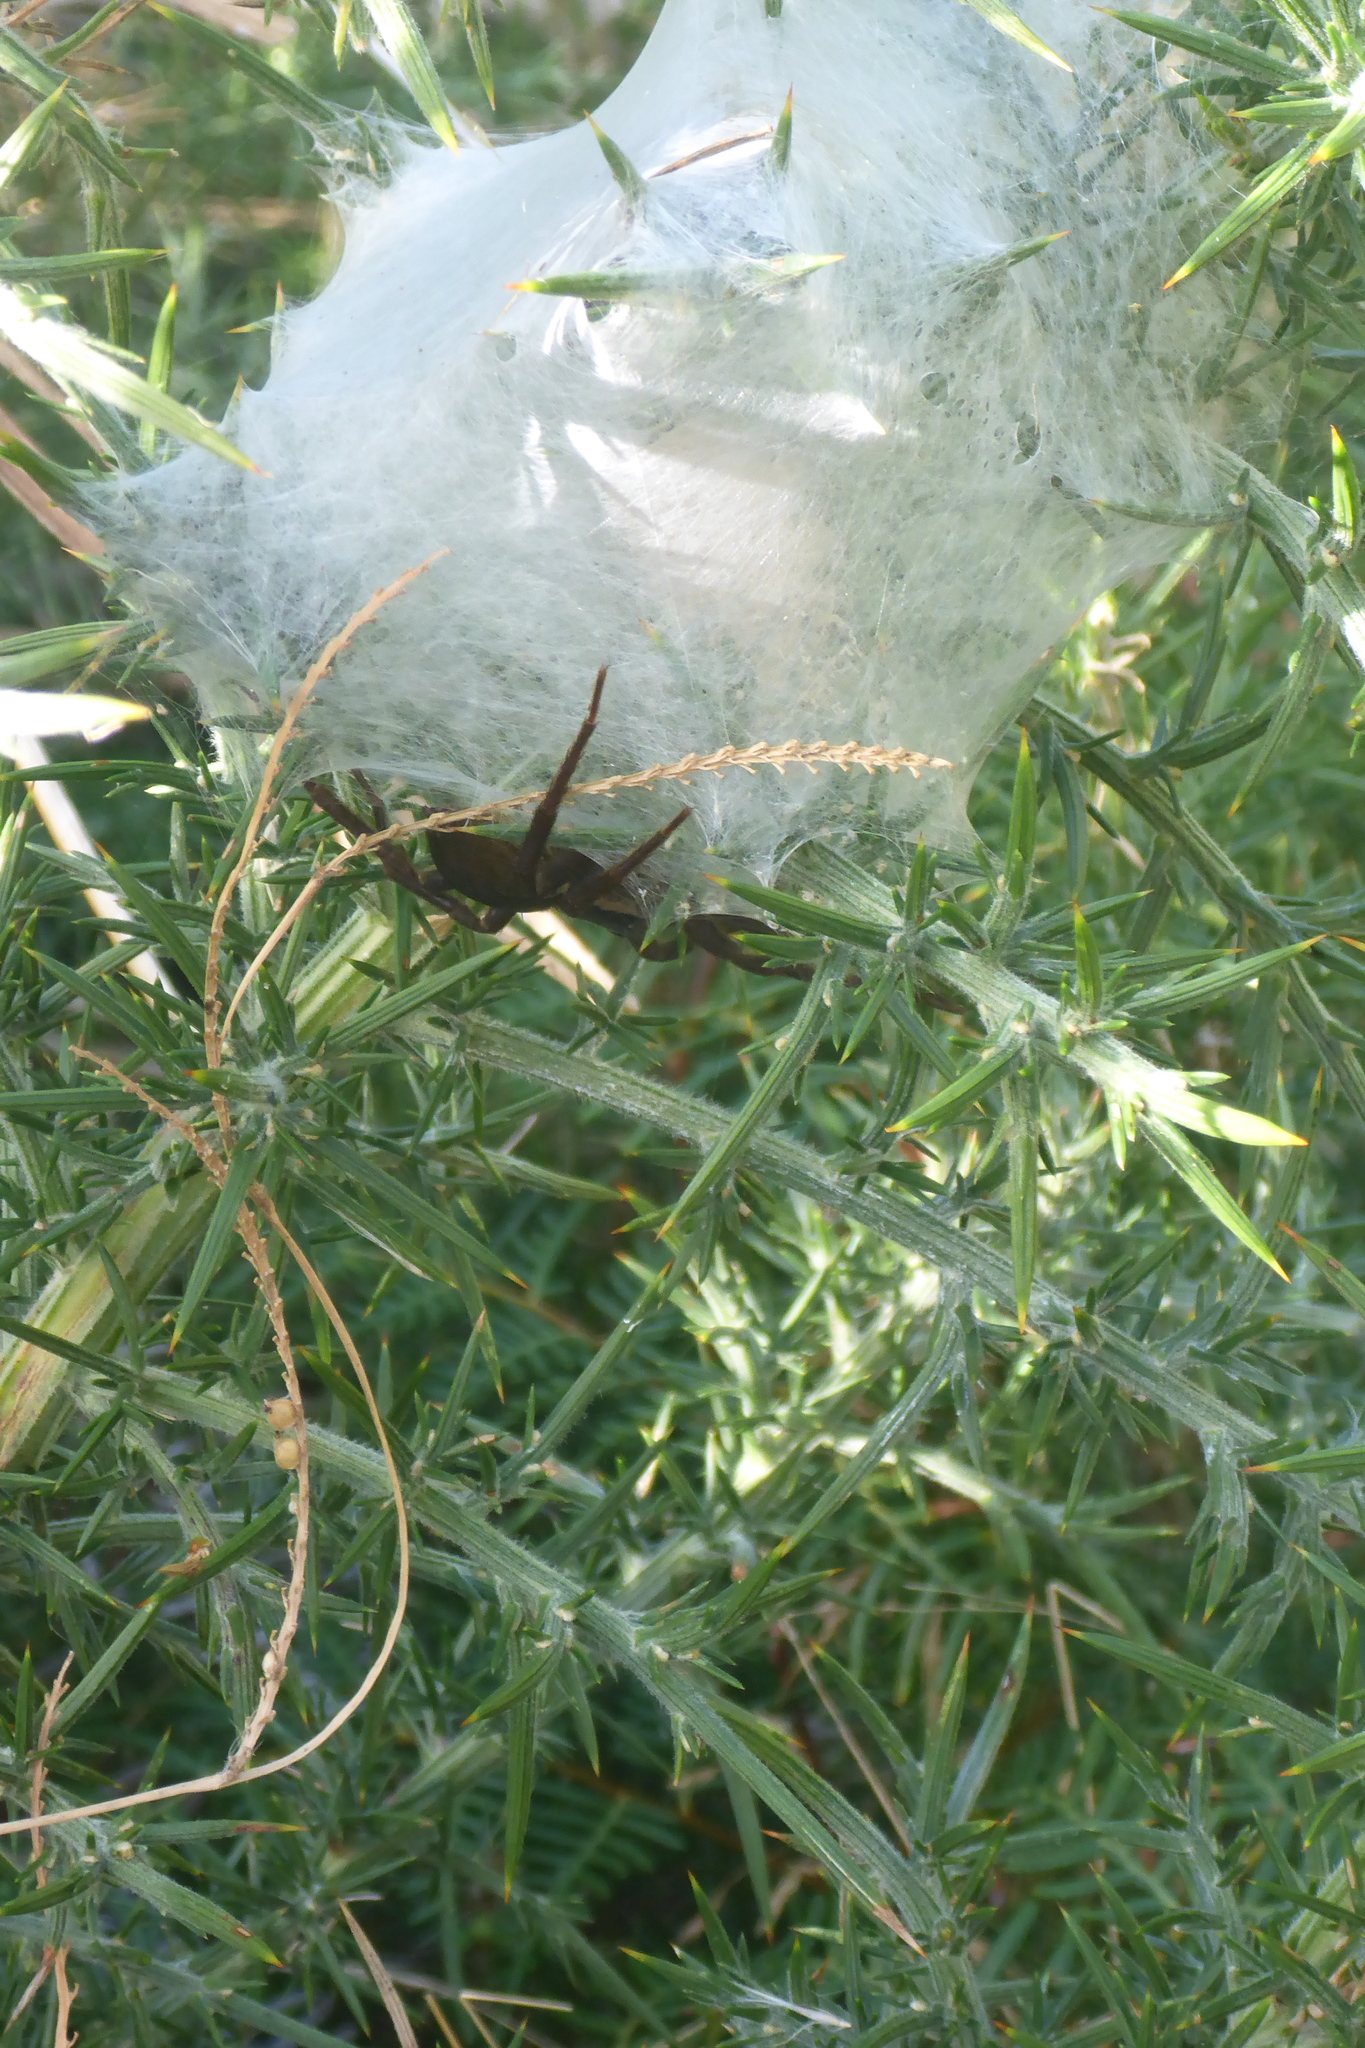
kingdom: Animalia
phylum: Arthropoda
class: Arachnida
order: Araneae
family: Pisauridae
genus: Dolomedes
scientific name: Dolomedes minor
